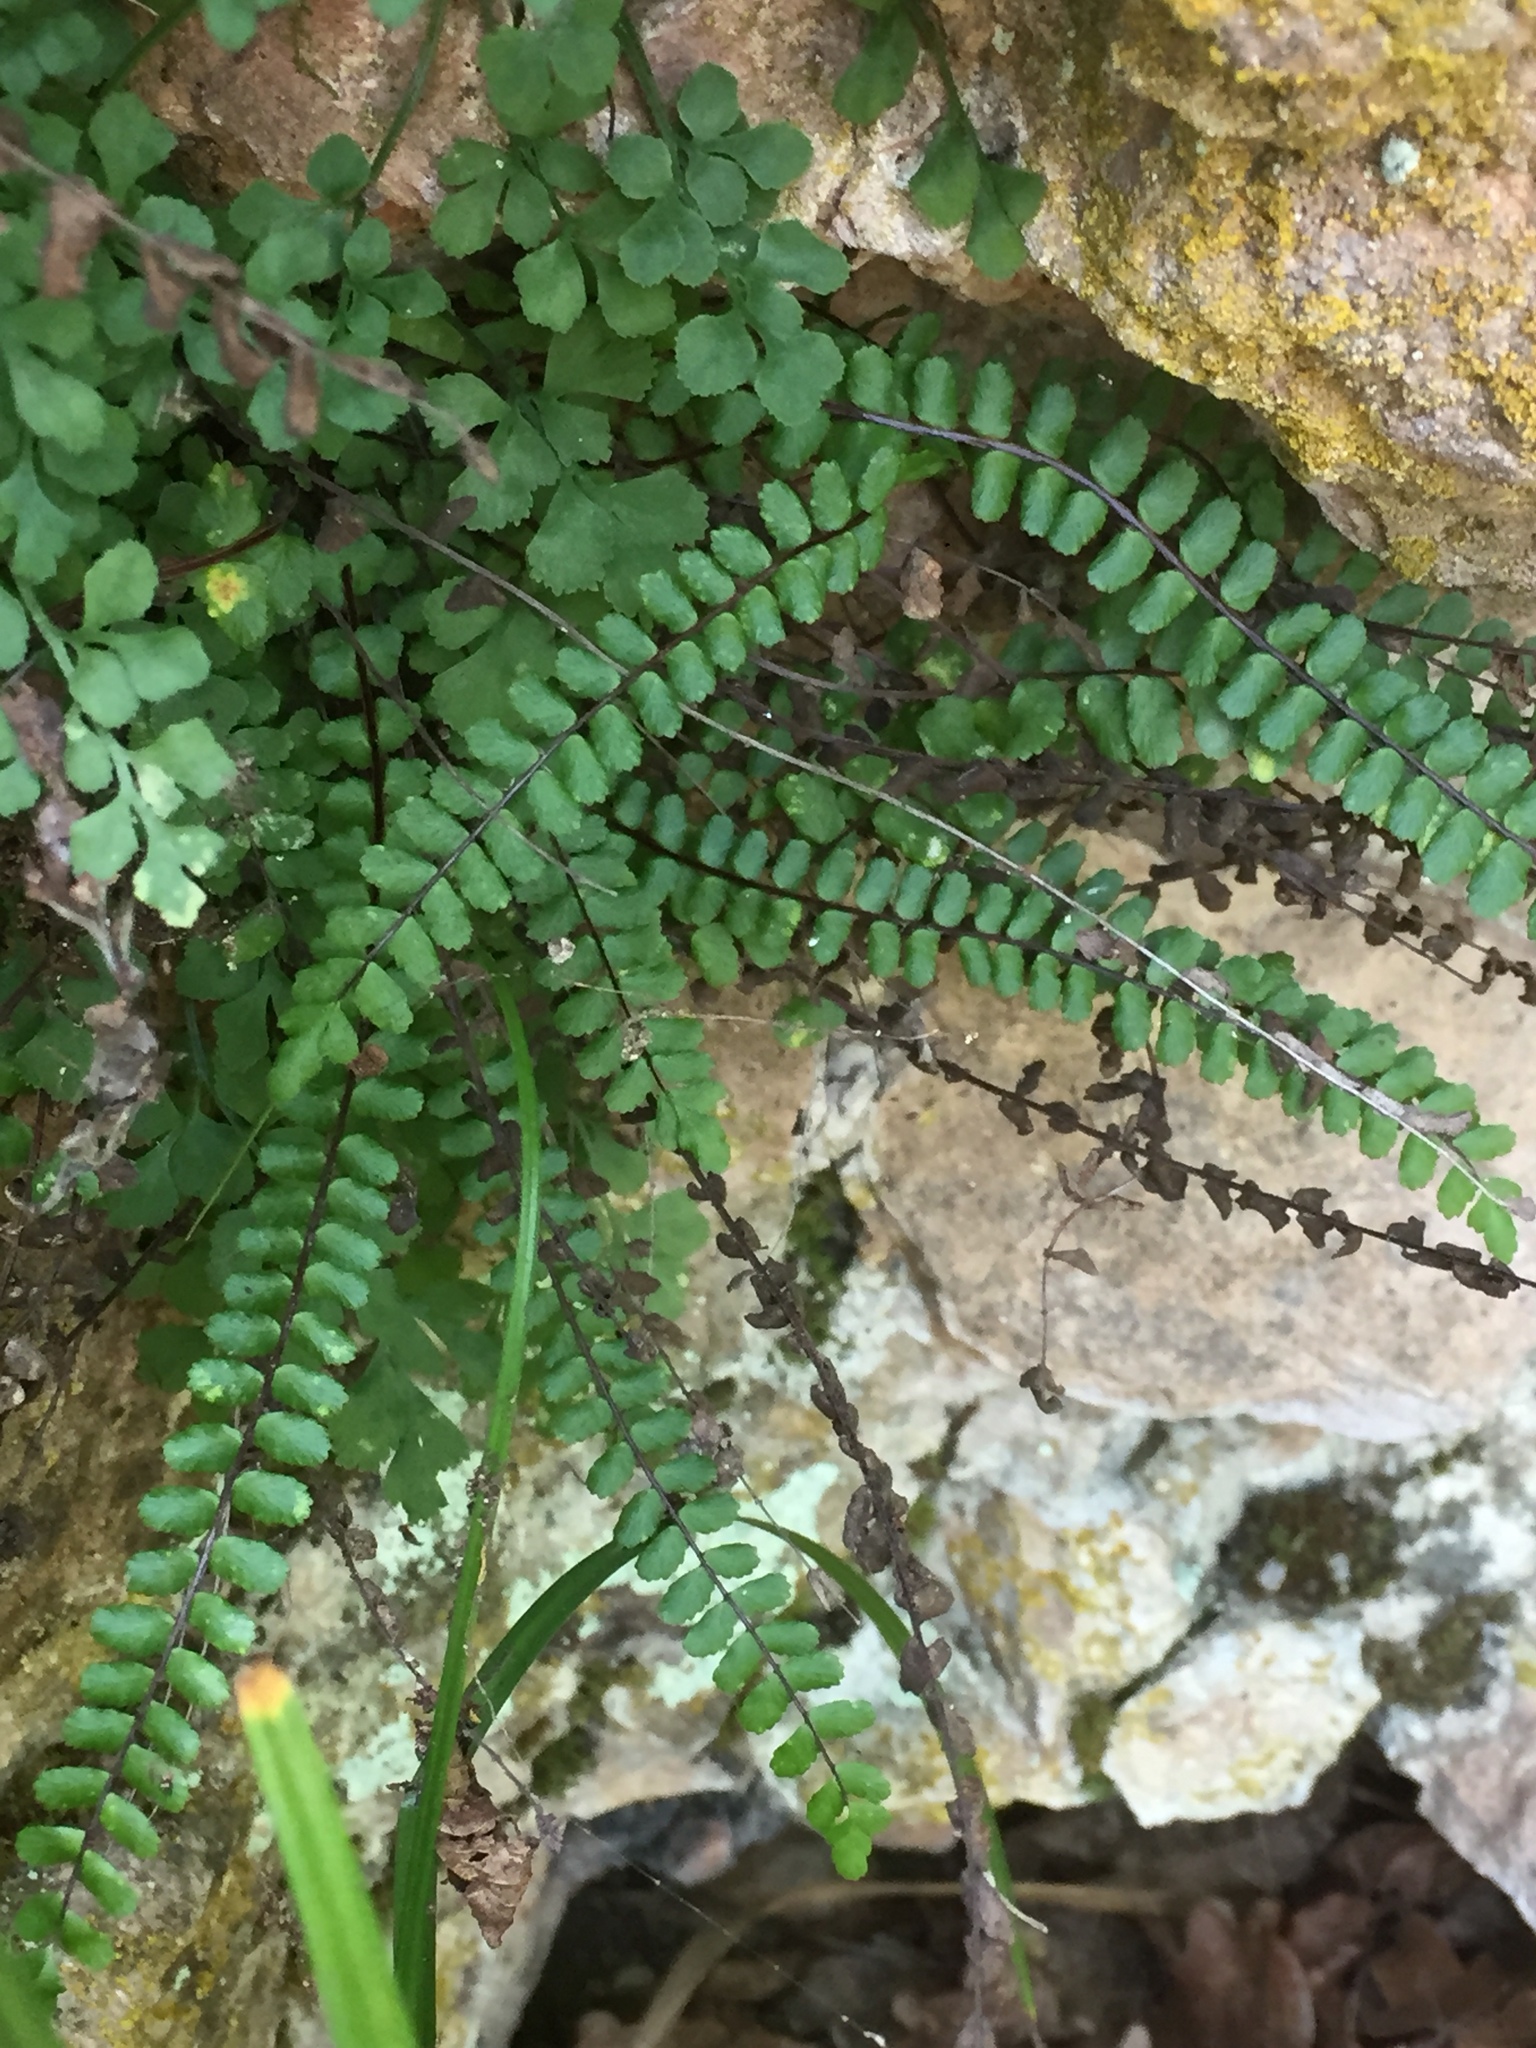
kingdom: Plantae
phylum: Tracheophyta
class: Polypodiopsida
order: Polypodiales
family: Aspleniaceae
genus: Asplenium
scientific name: Asplenium trichomanes
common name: Maidenhair spleenwort
